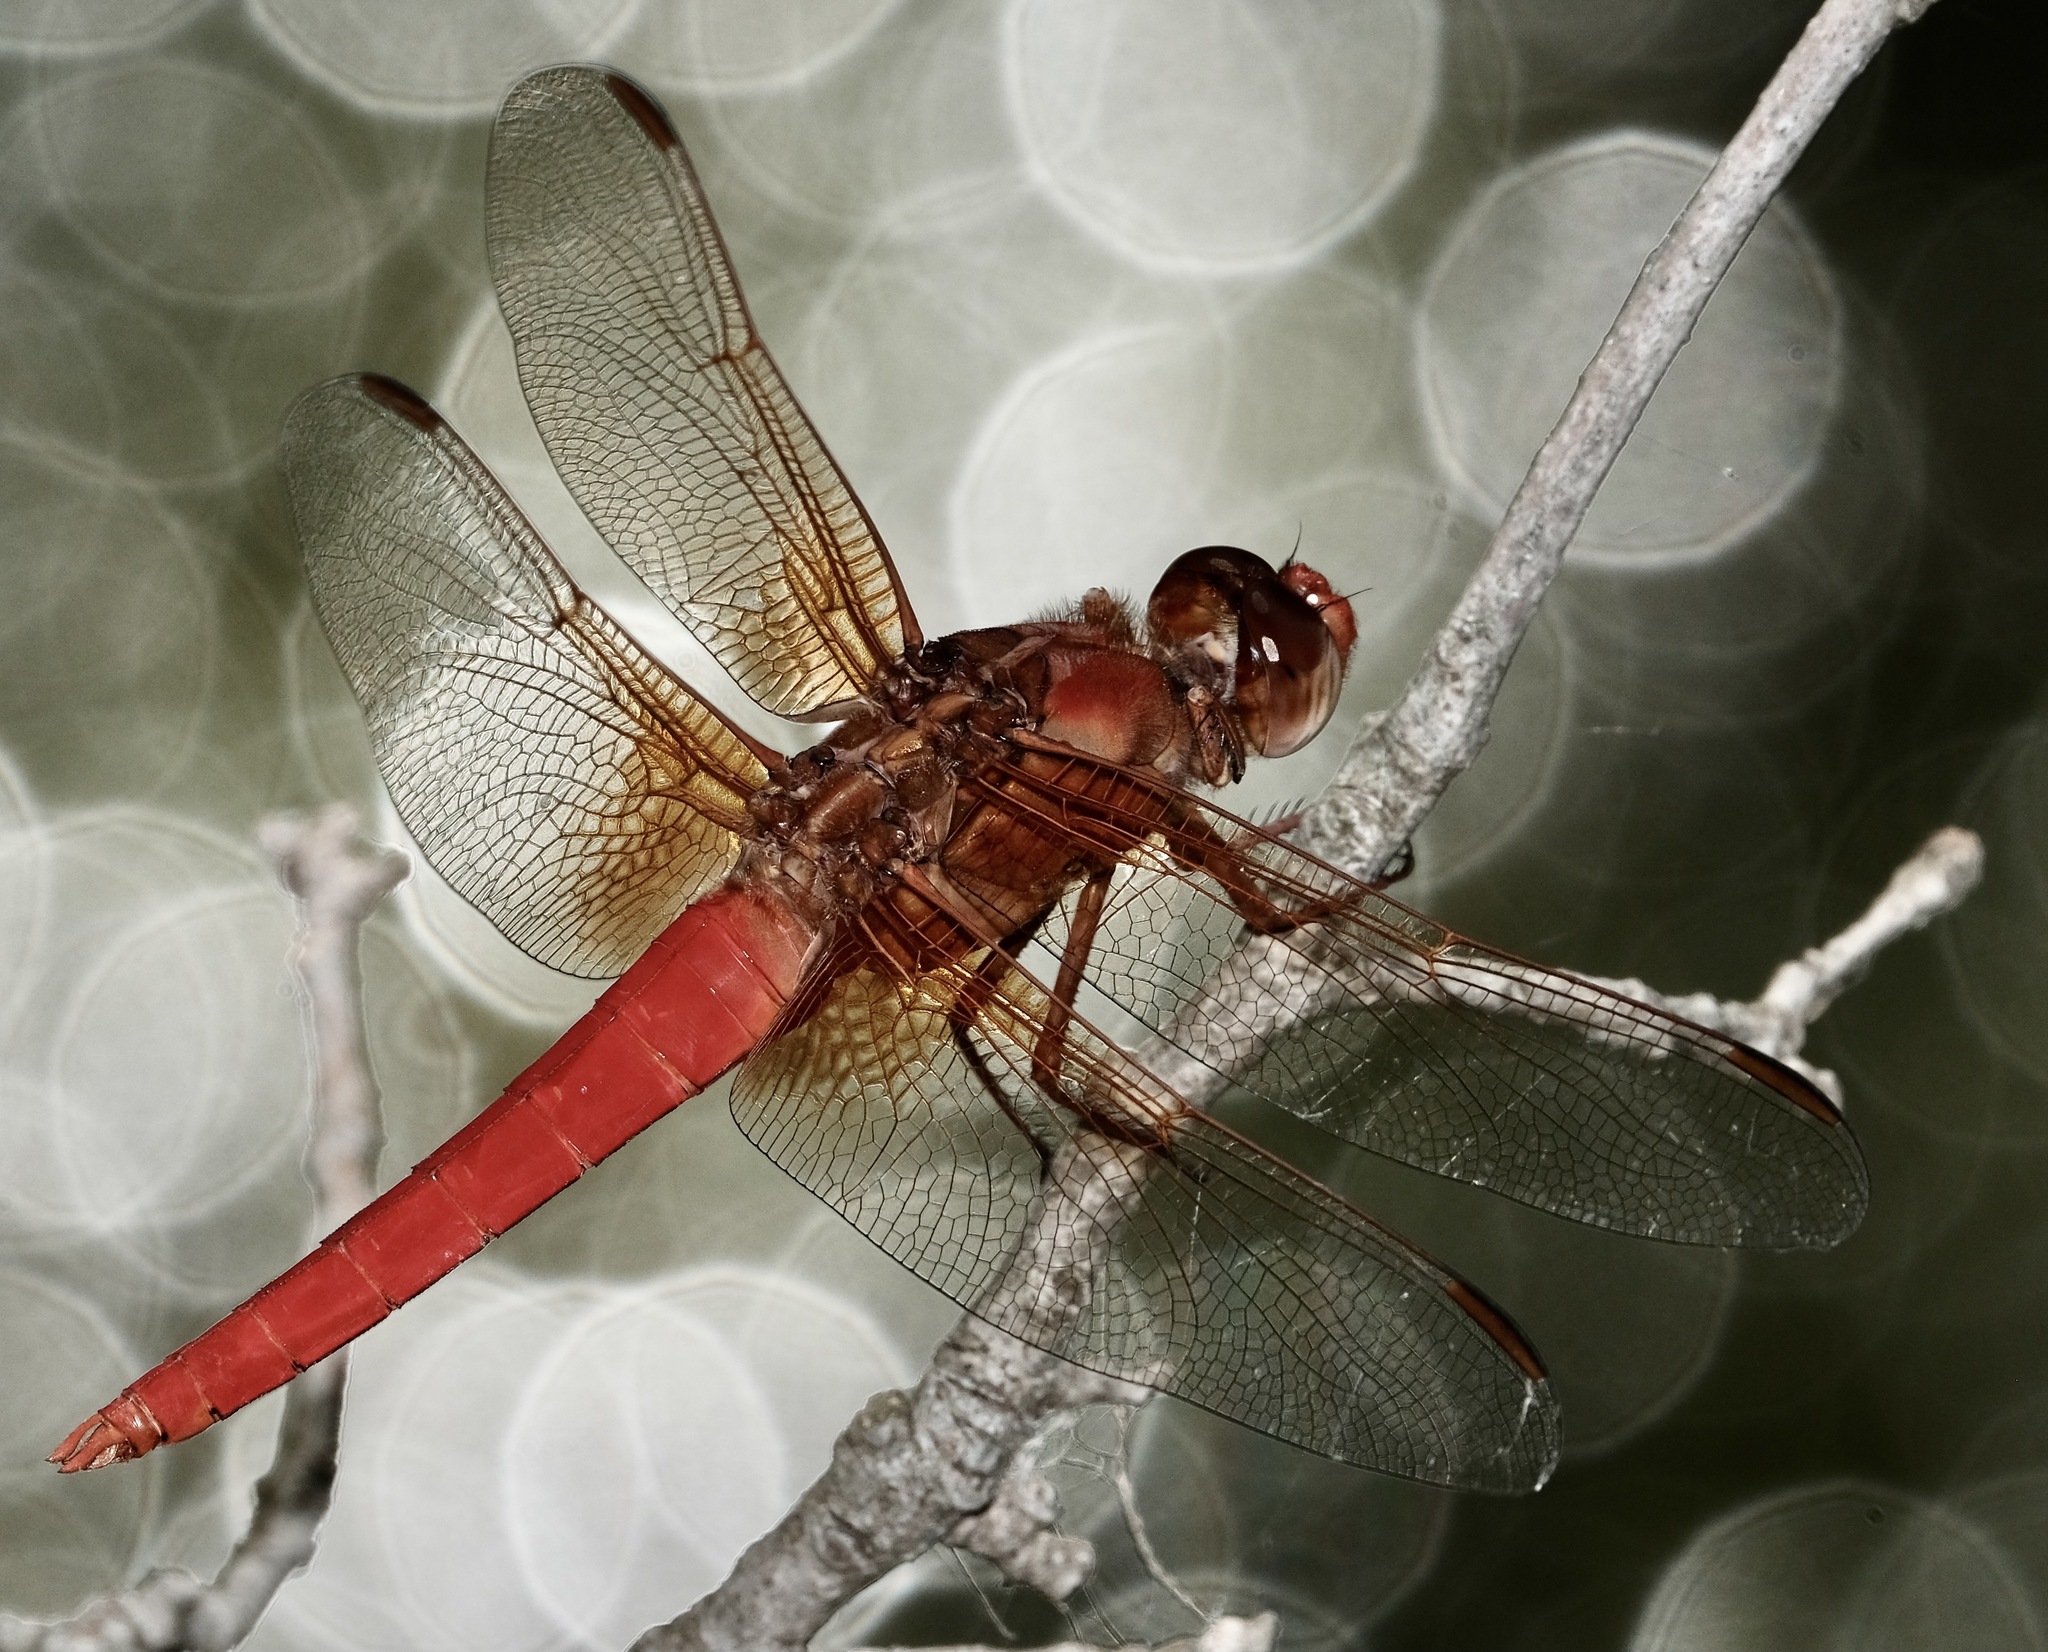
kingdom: Animalia
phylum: Arthropoda
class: Insecta
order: Odonata
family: Libellulidae
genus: Libellula
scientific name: Libellula croceipennis
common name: Neon skimmer
